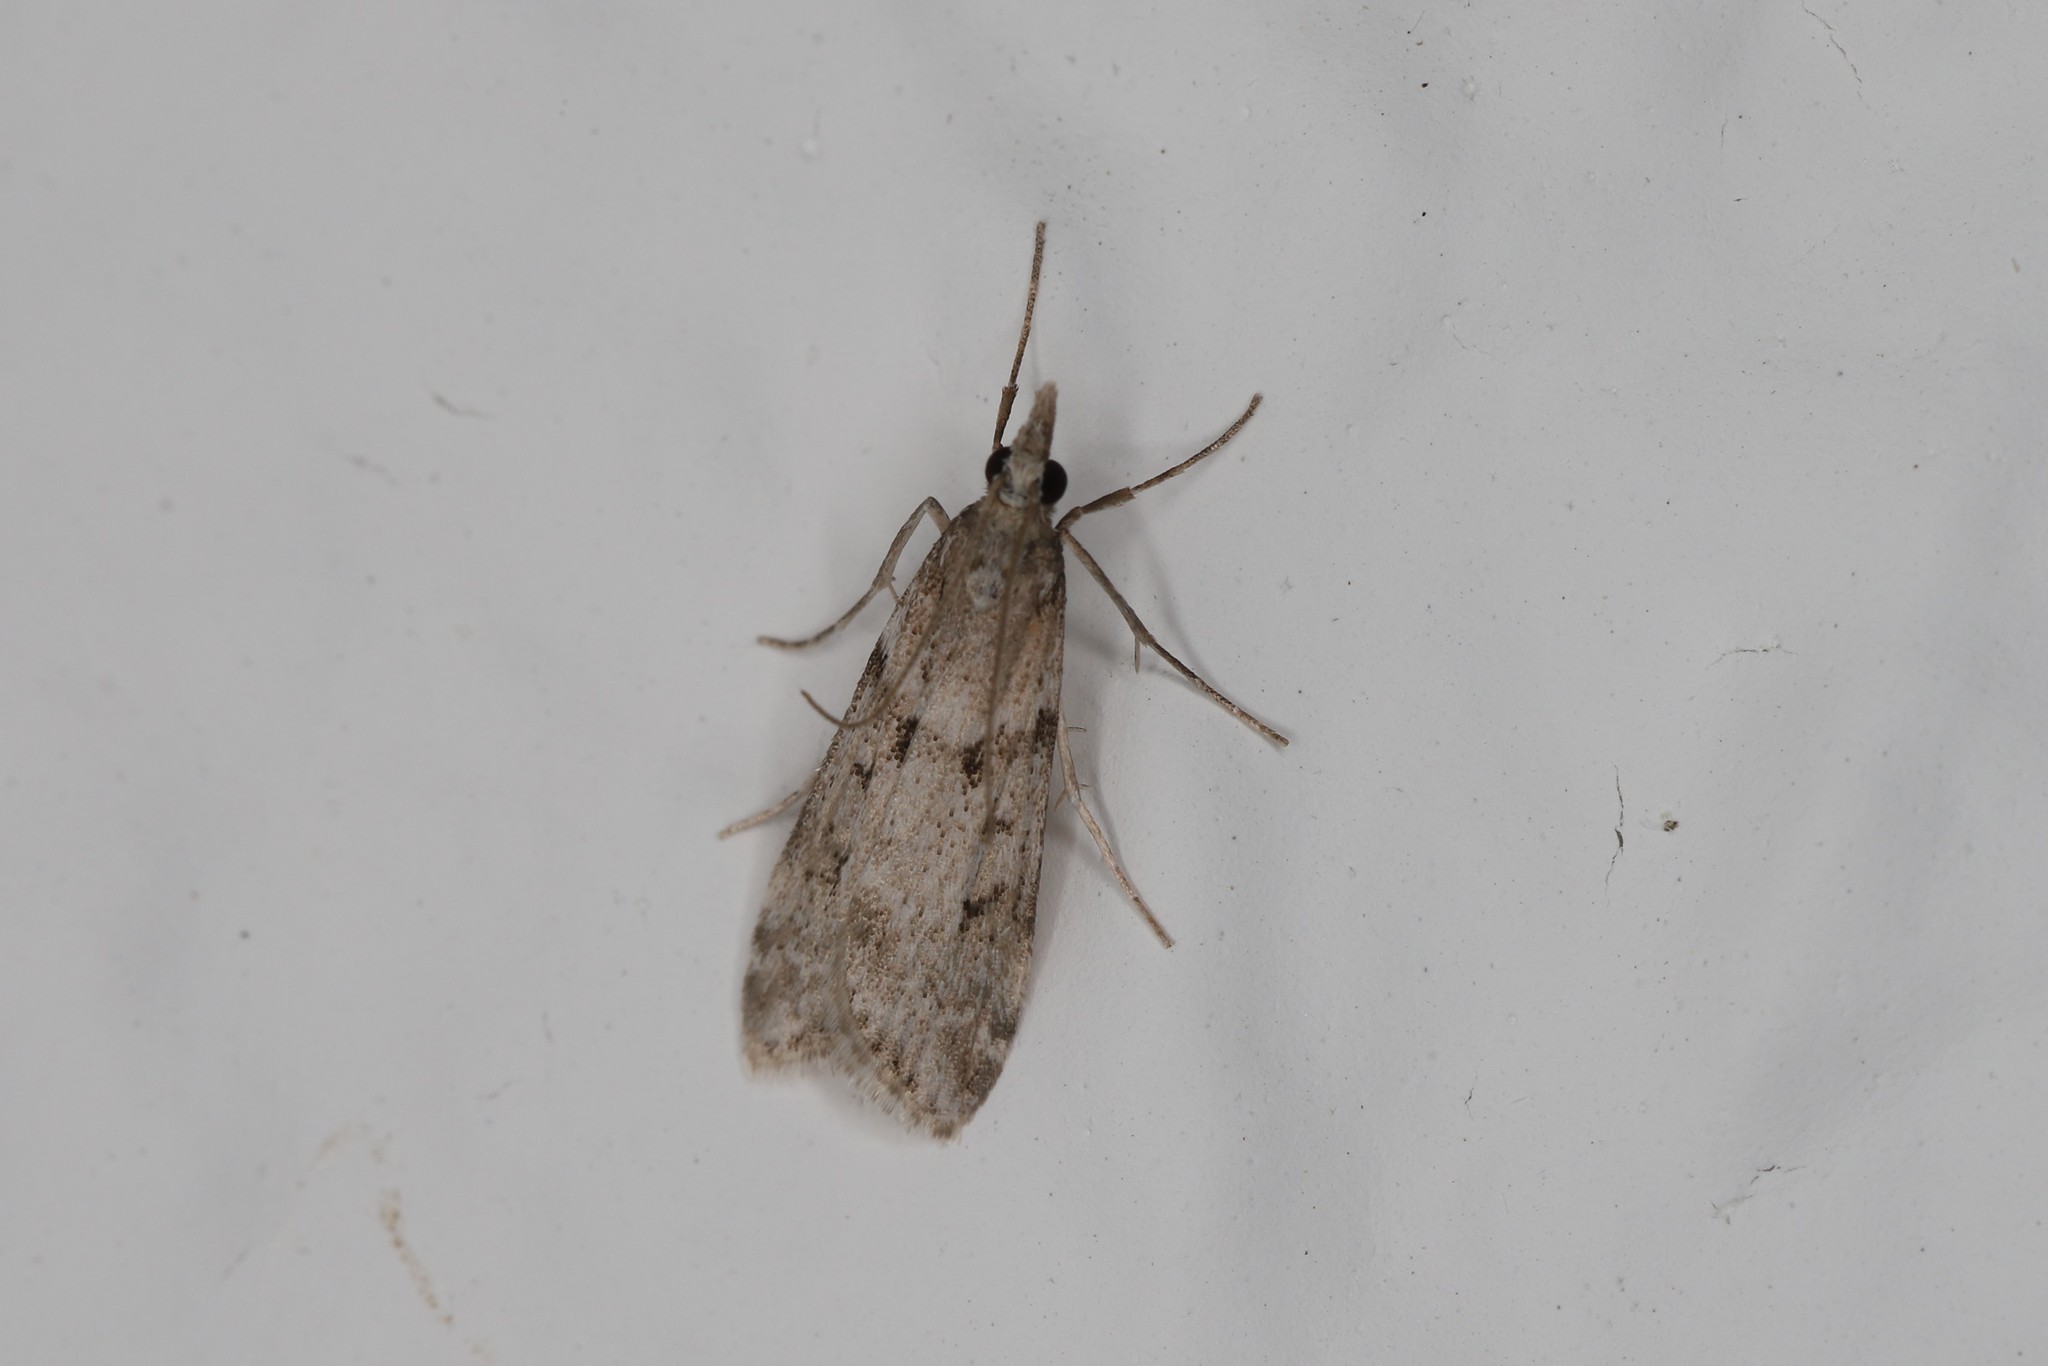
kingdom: Animalia
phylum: Arthropoda
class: Insecta
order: Lepidoptera
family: Crambidae
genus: Eudonia
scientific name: Eudonia angustea
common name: Narrow-winged grey
